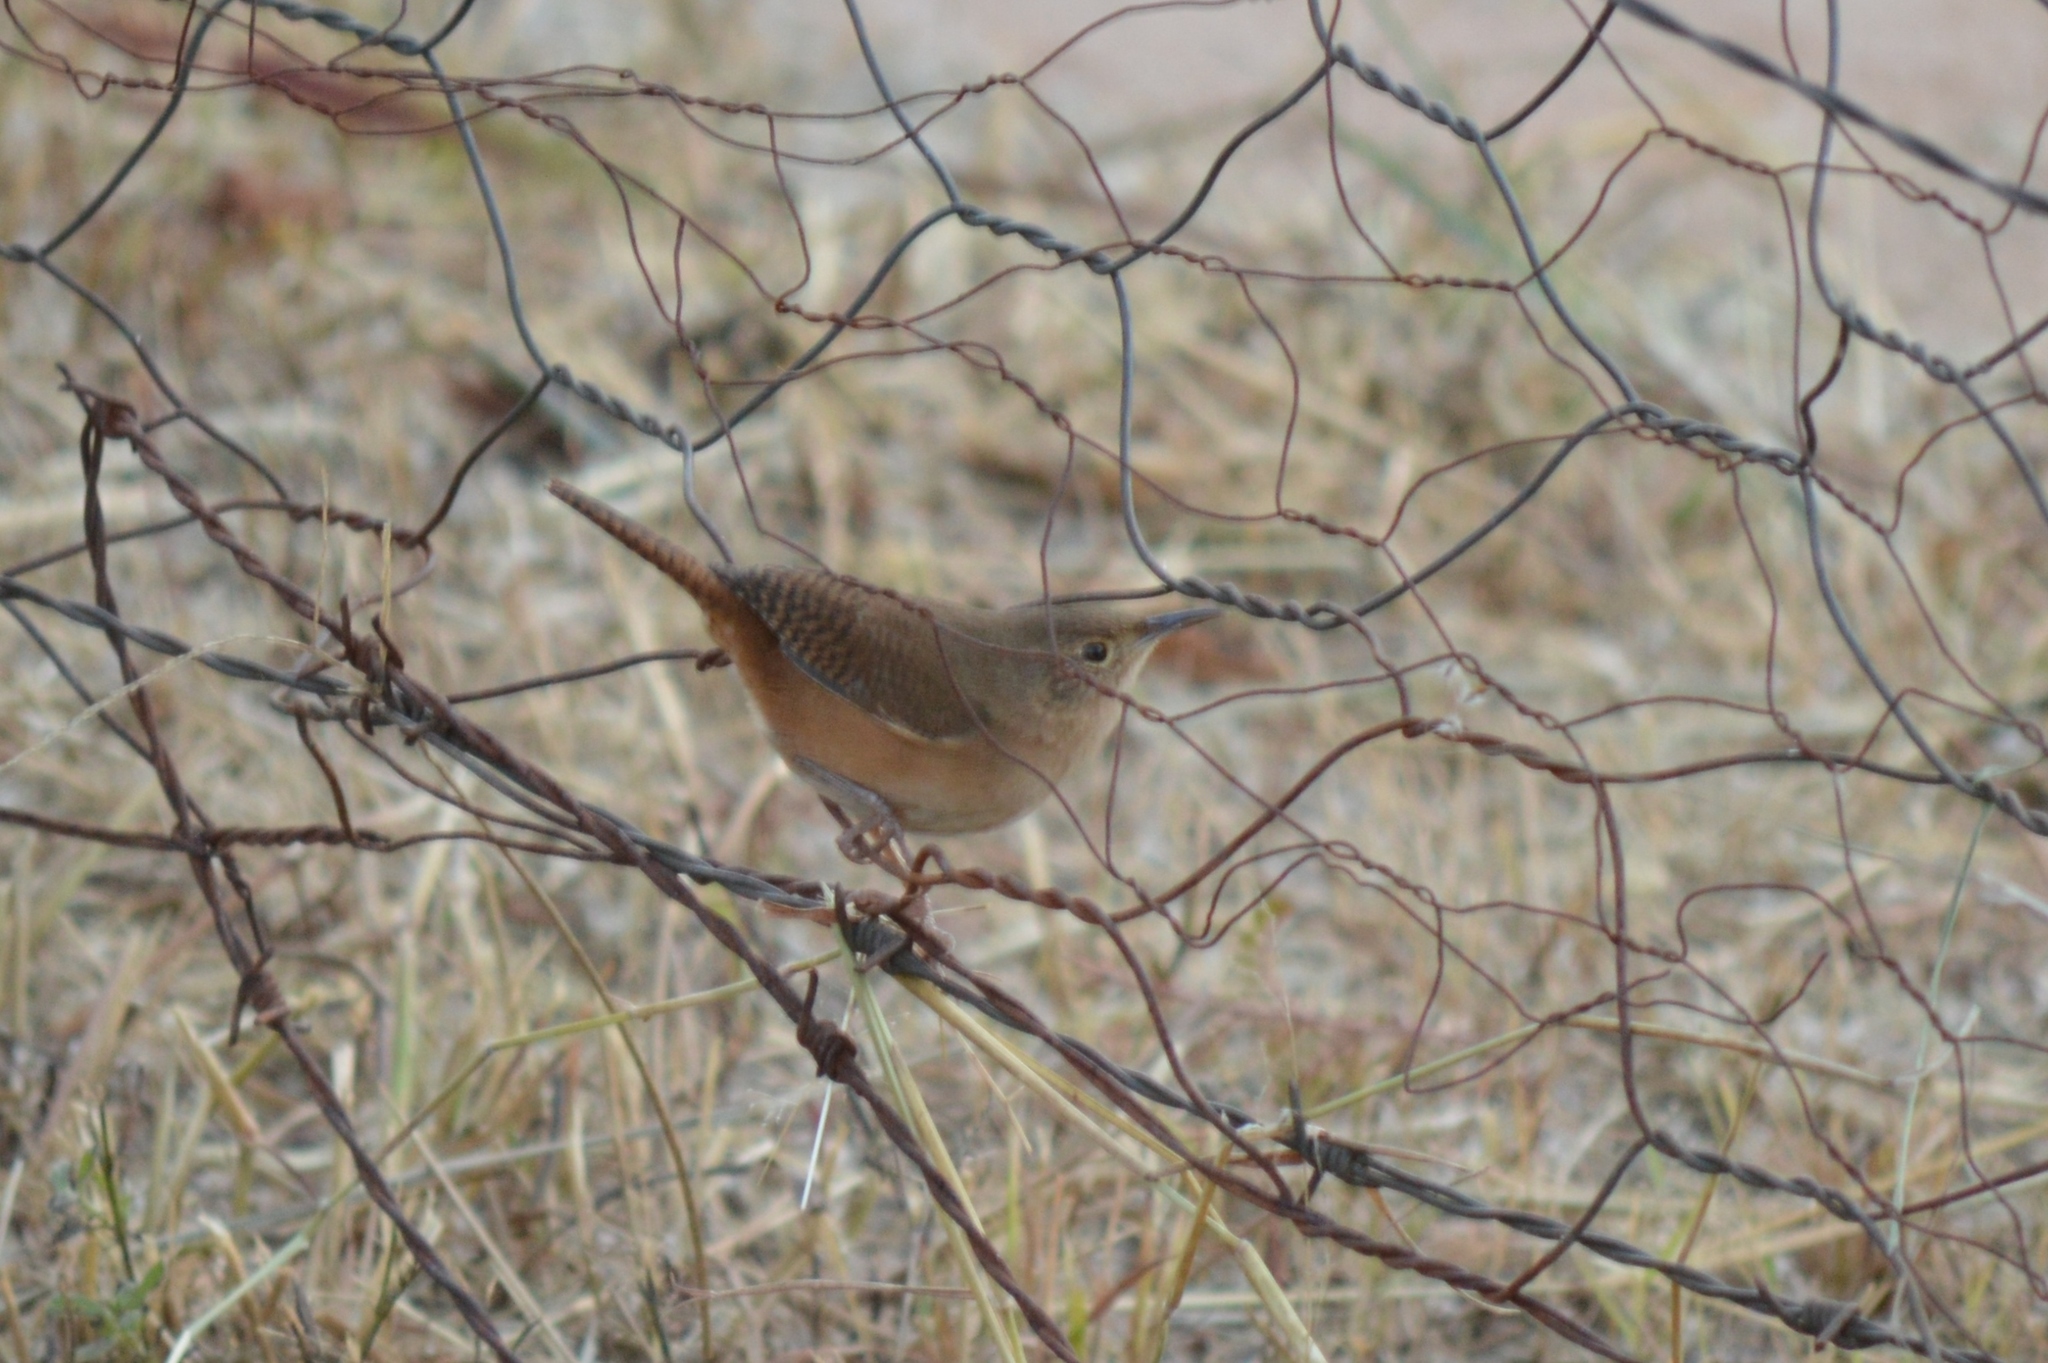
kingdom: Animalia
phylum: Chordata
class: Aves
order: Passeriformes
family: Troglodytidae
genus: Troglodytes
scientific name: Troglodytes aedon
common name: House wren
